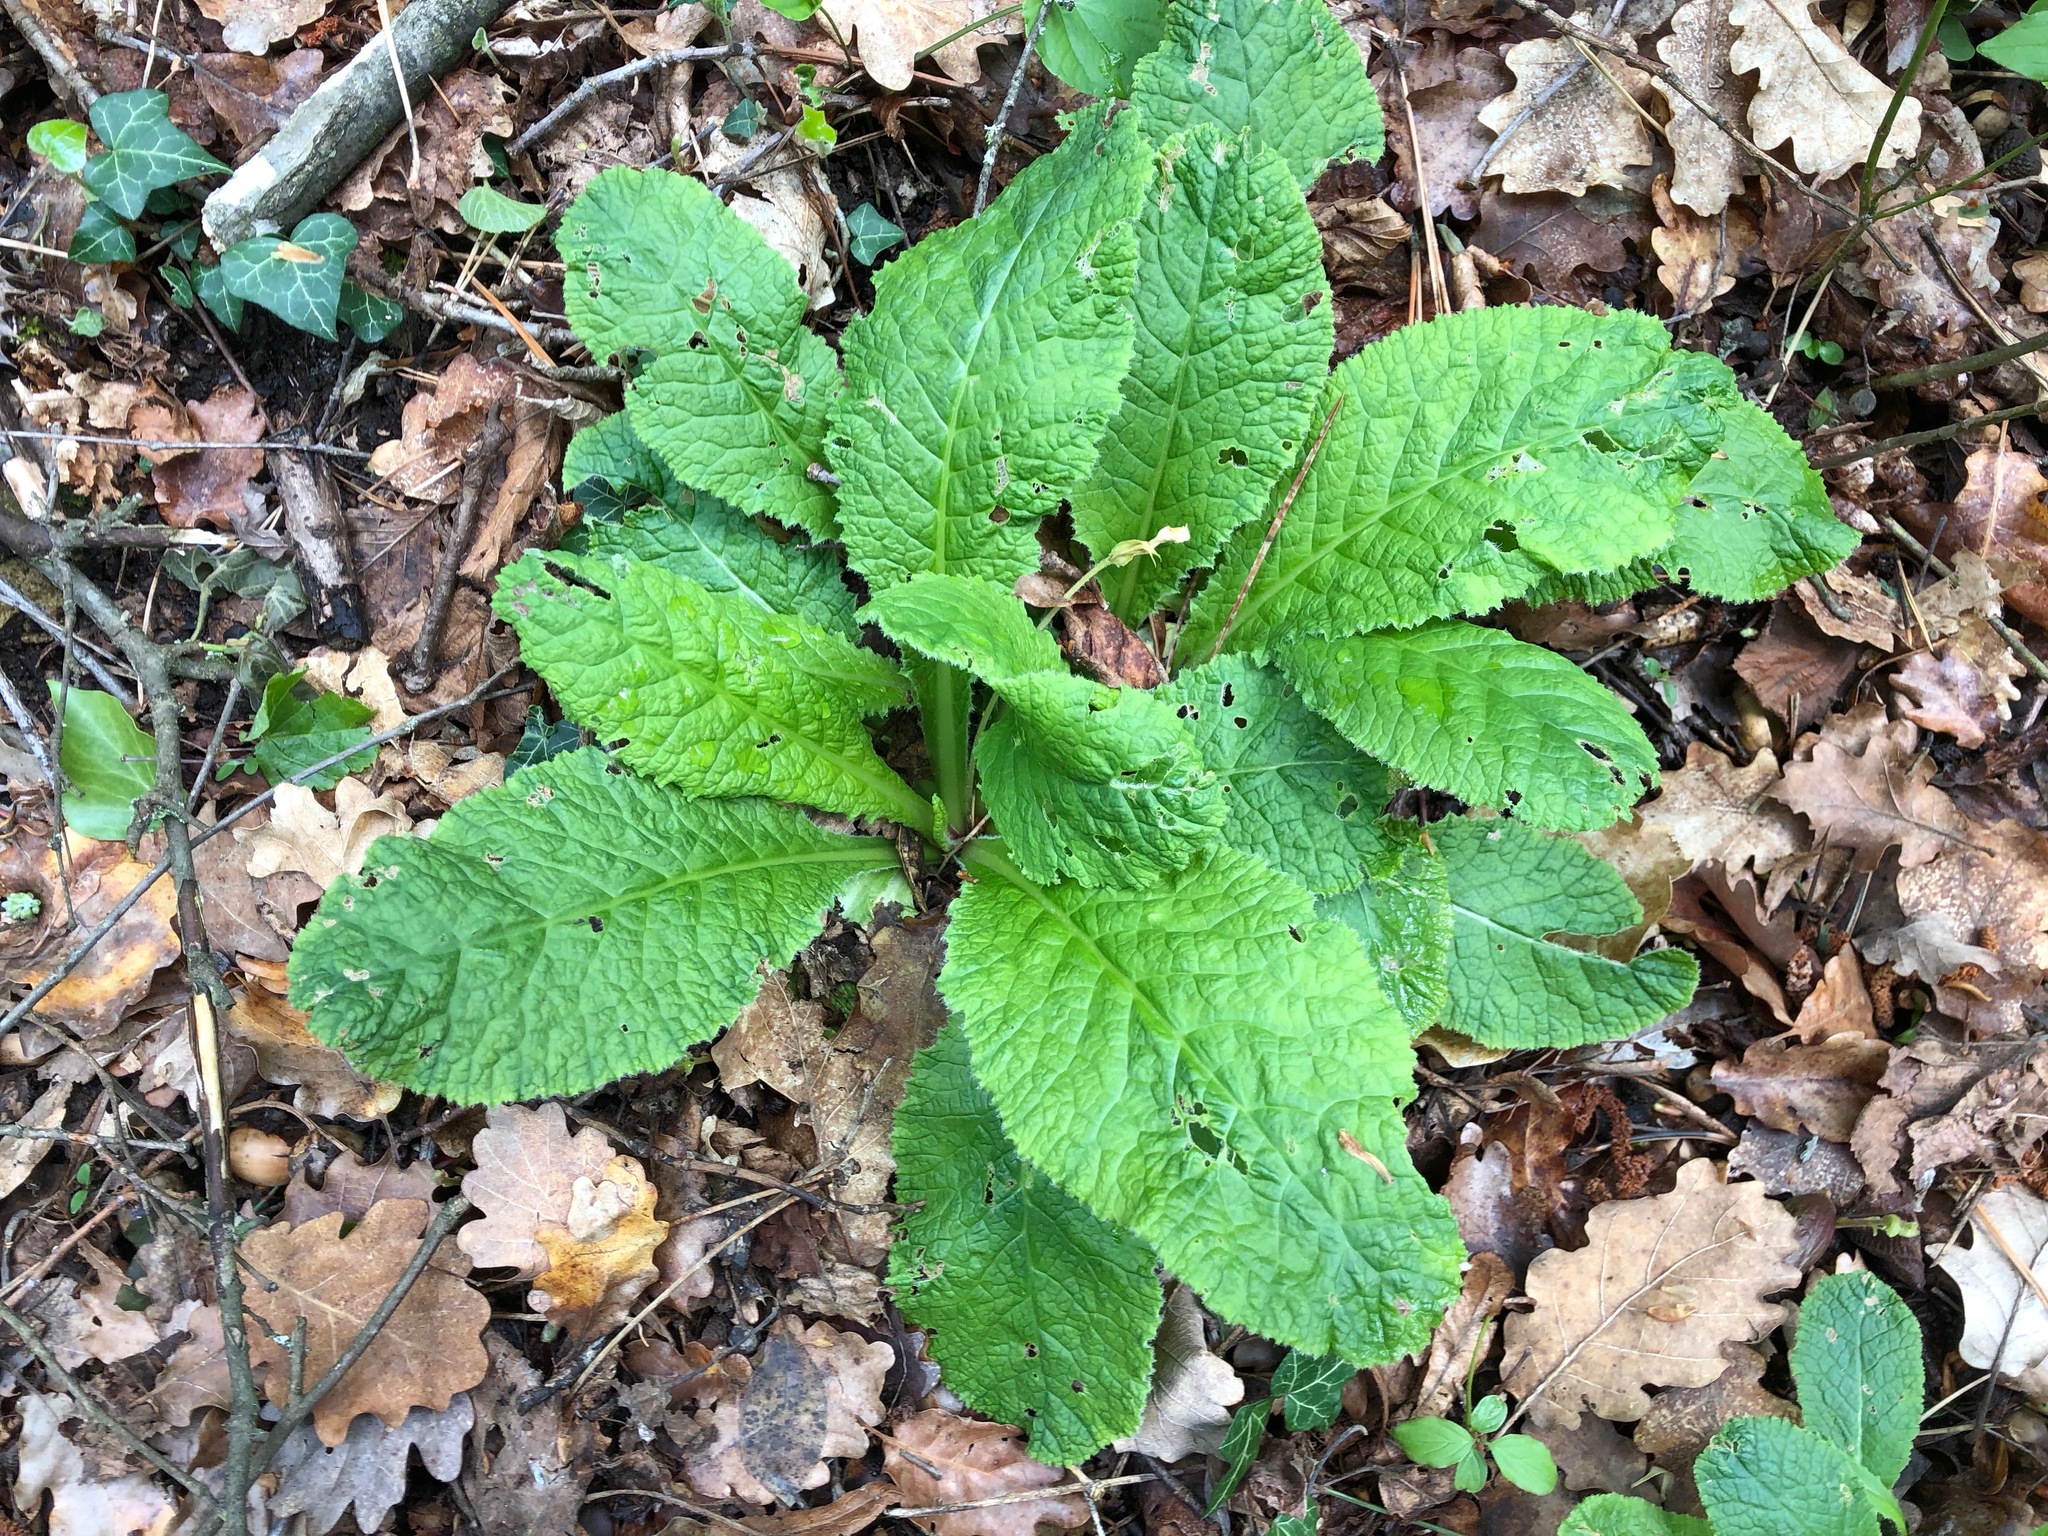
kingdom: Plantae
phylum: Tracheophyta
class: Magnoliopsida
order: Ericales
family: Primulaceae
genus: Primula
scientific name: Primula vulgaris
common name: Primrose
